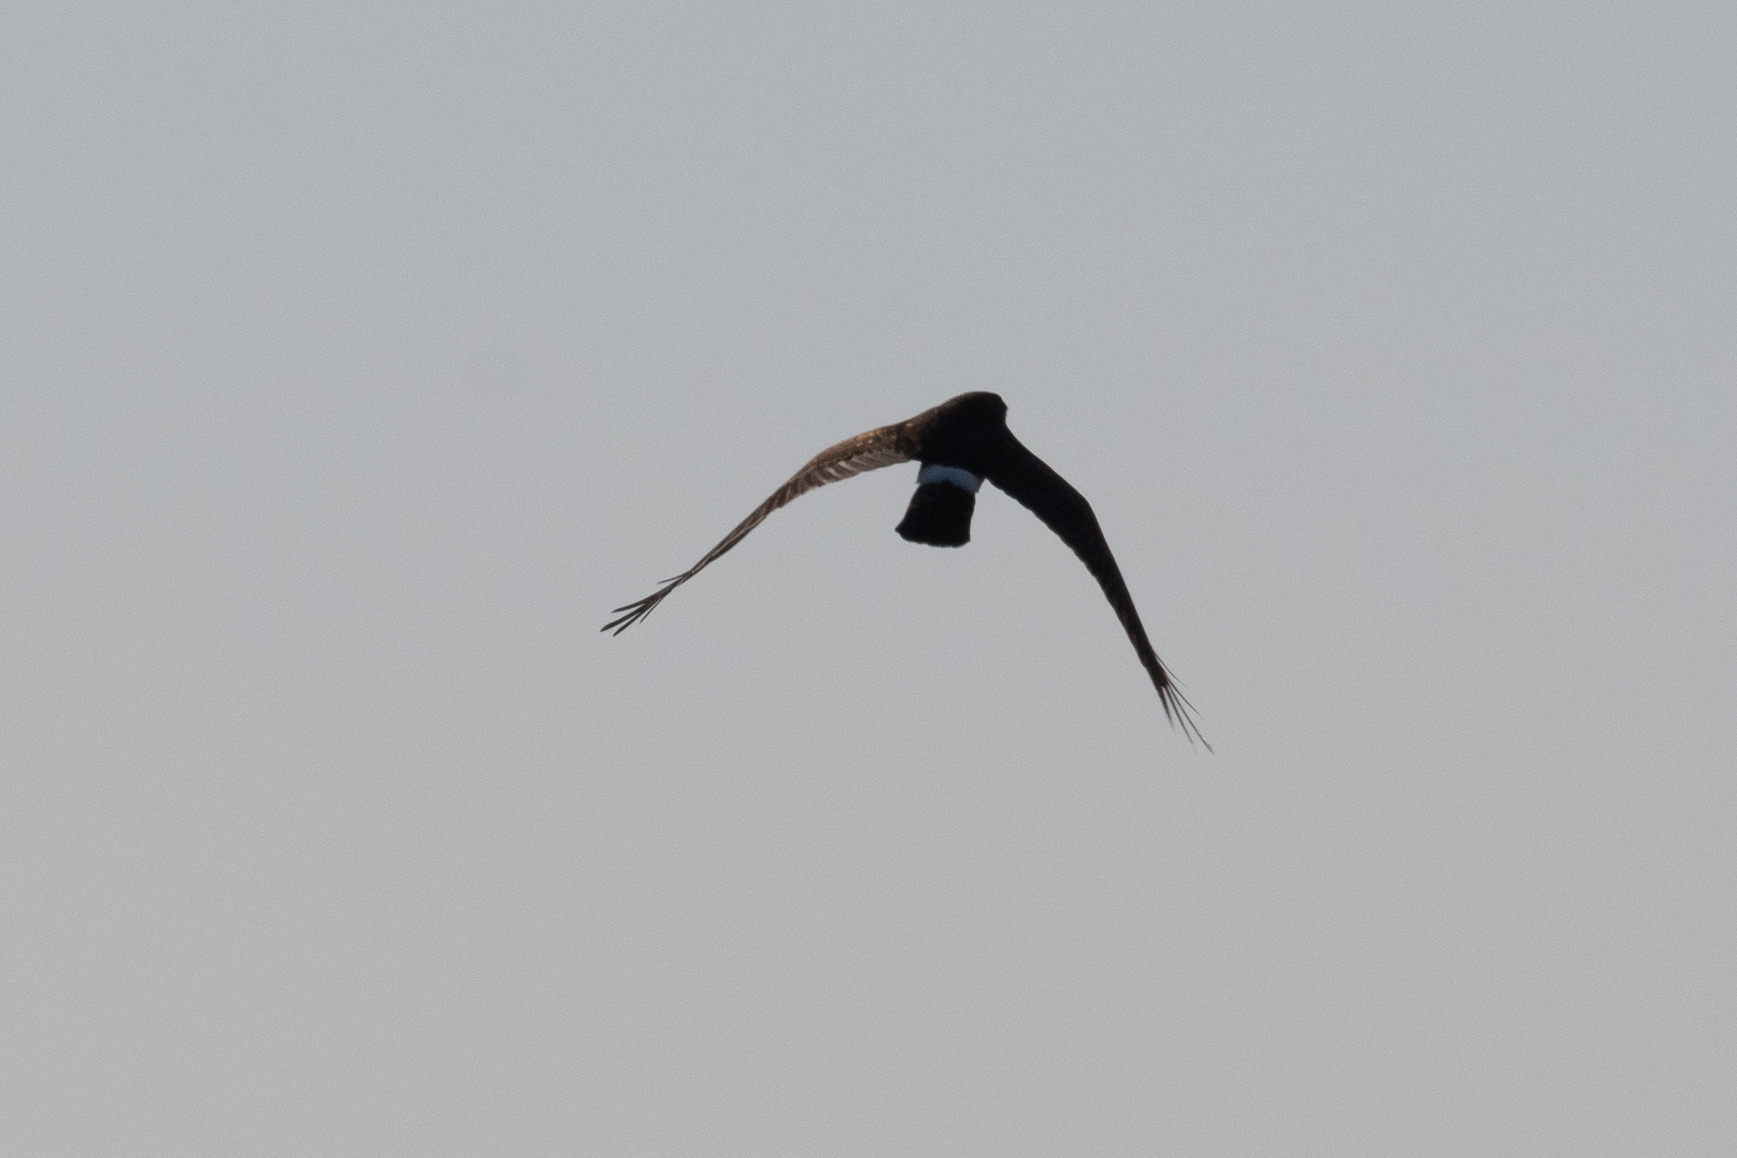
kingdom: Animalia
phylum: Chordata
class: Aves
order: Accipitriformes
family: Accipitridae
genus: Circus
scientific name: Circus cyaneus
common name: Hen harrier
